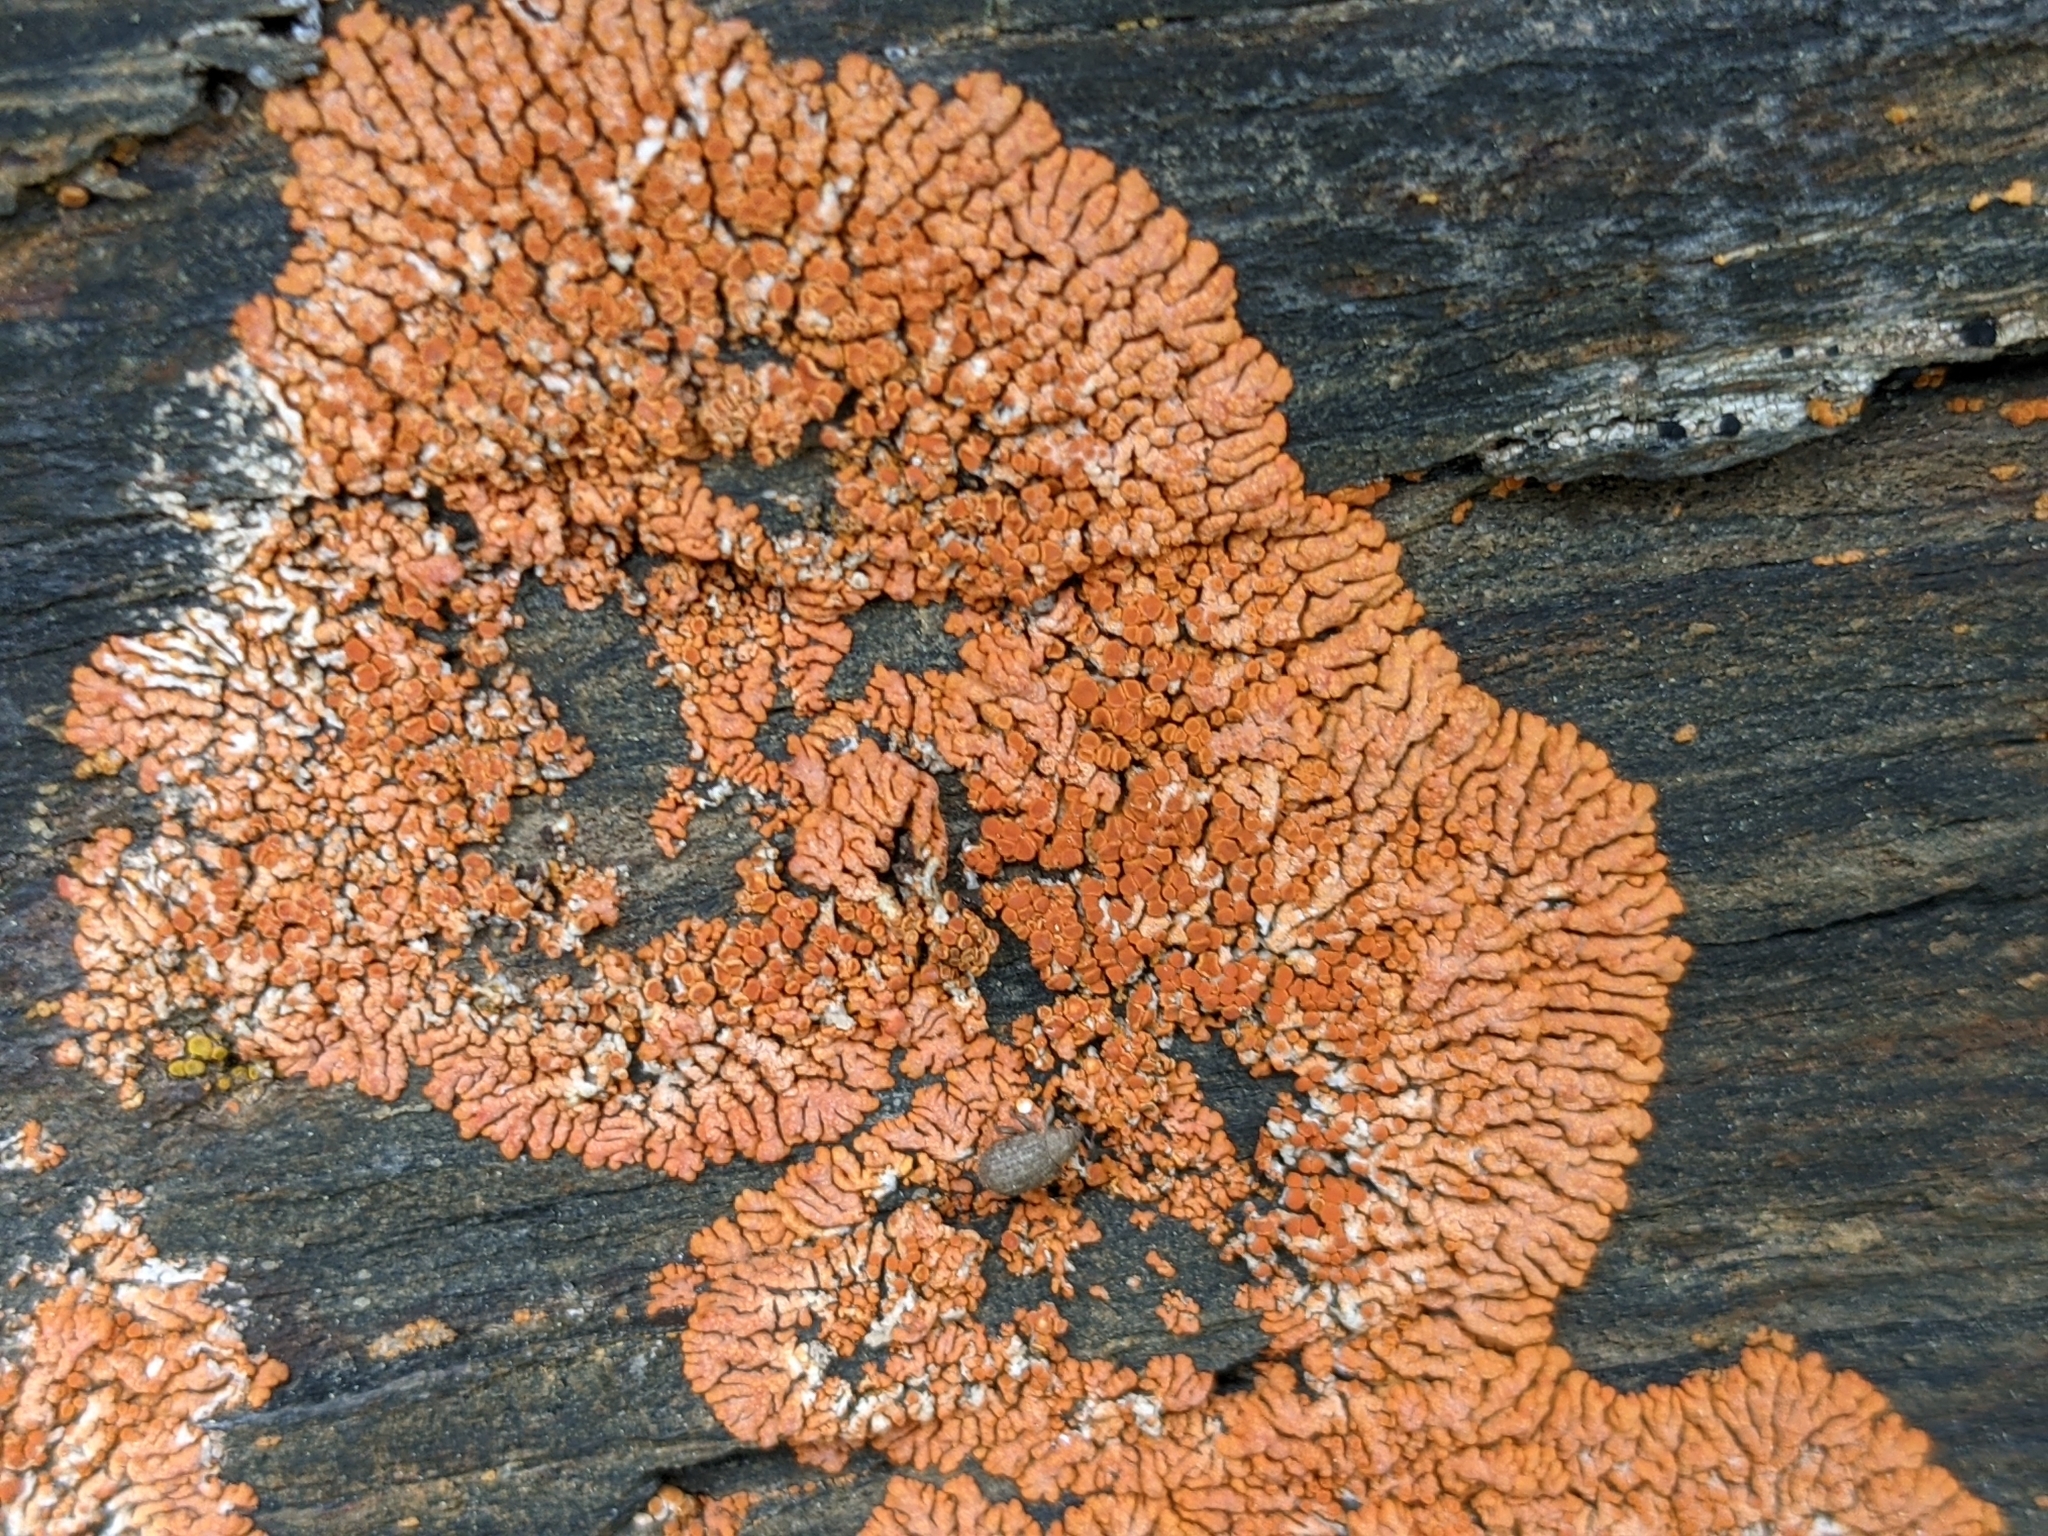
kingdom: Fungi
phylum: Ascomycota
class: Lecanoromycetes
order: Teloschistales
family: Teloschistaceae
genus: Xanthoria
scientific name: Xanthoria elegans
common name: Elegant sunburst lichen
